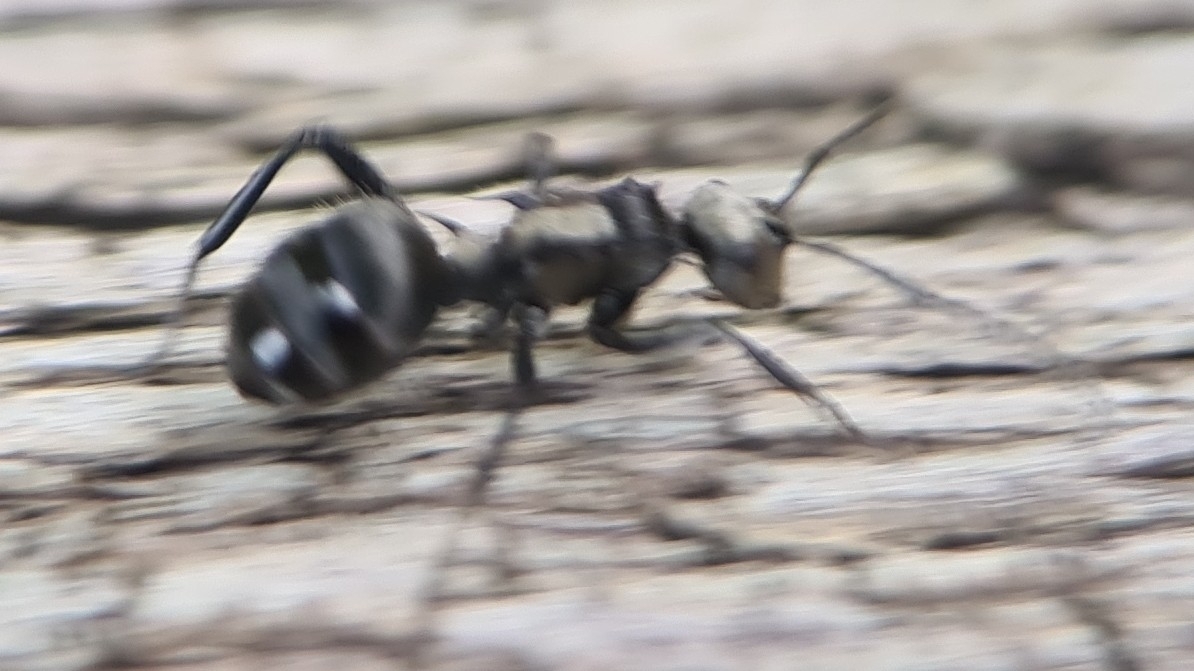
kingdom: Animalia
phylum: Arthropoda
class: Insecta
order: Hymenoptera
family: Formicidae
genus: Polyrhachis
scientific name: Polyrhachis daemeli
